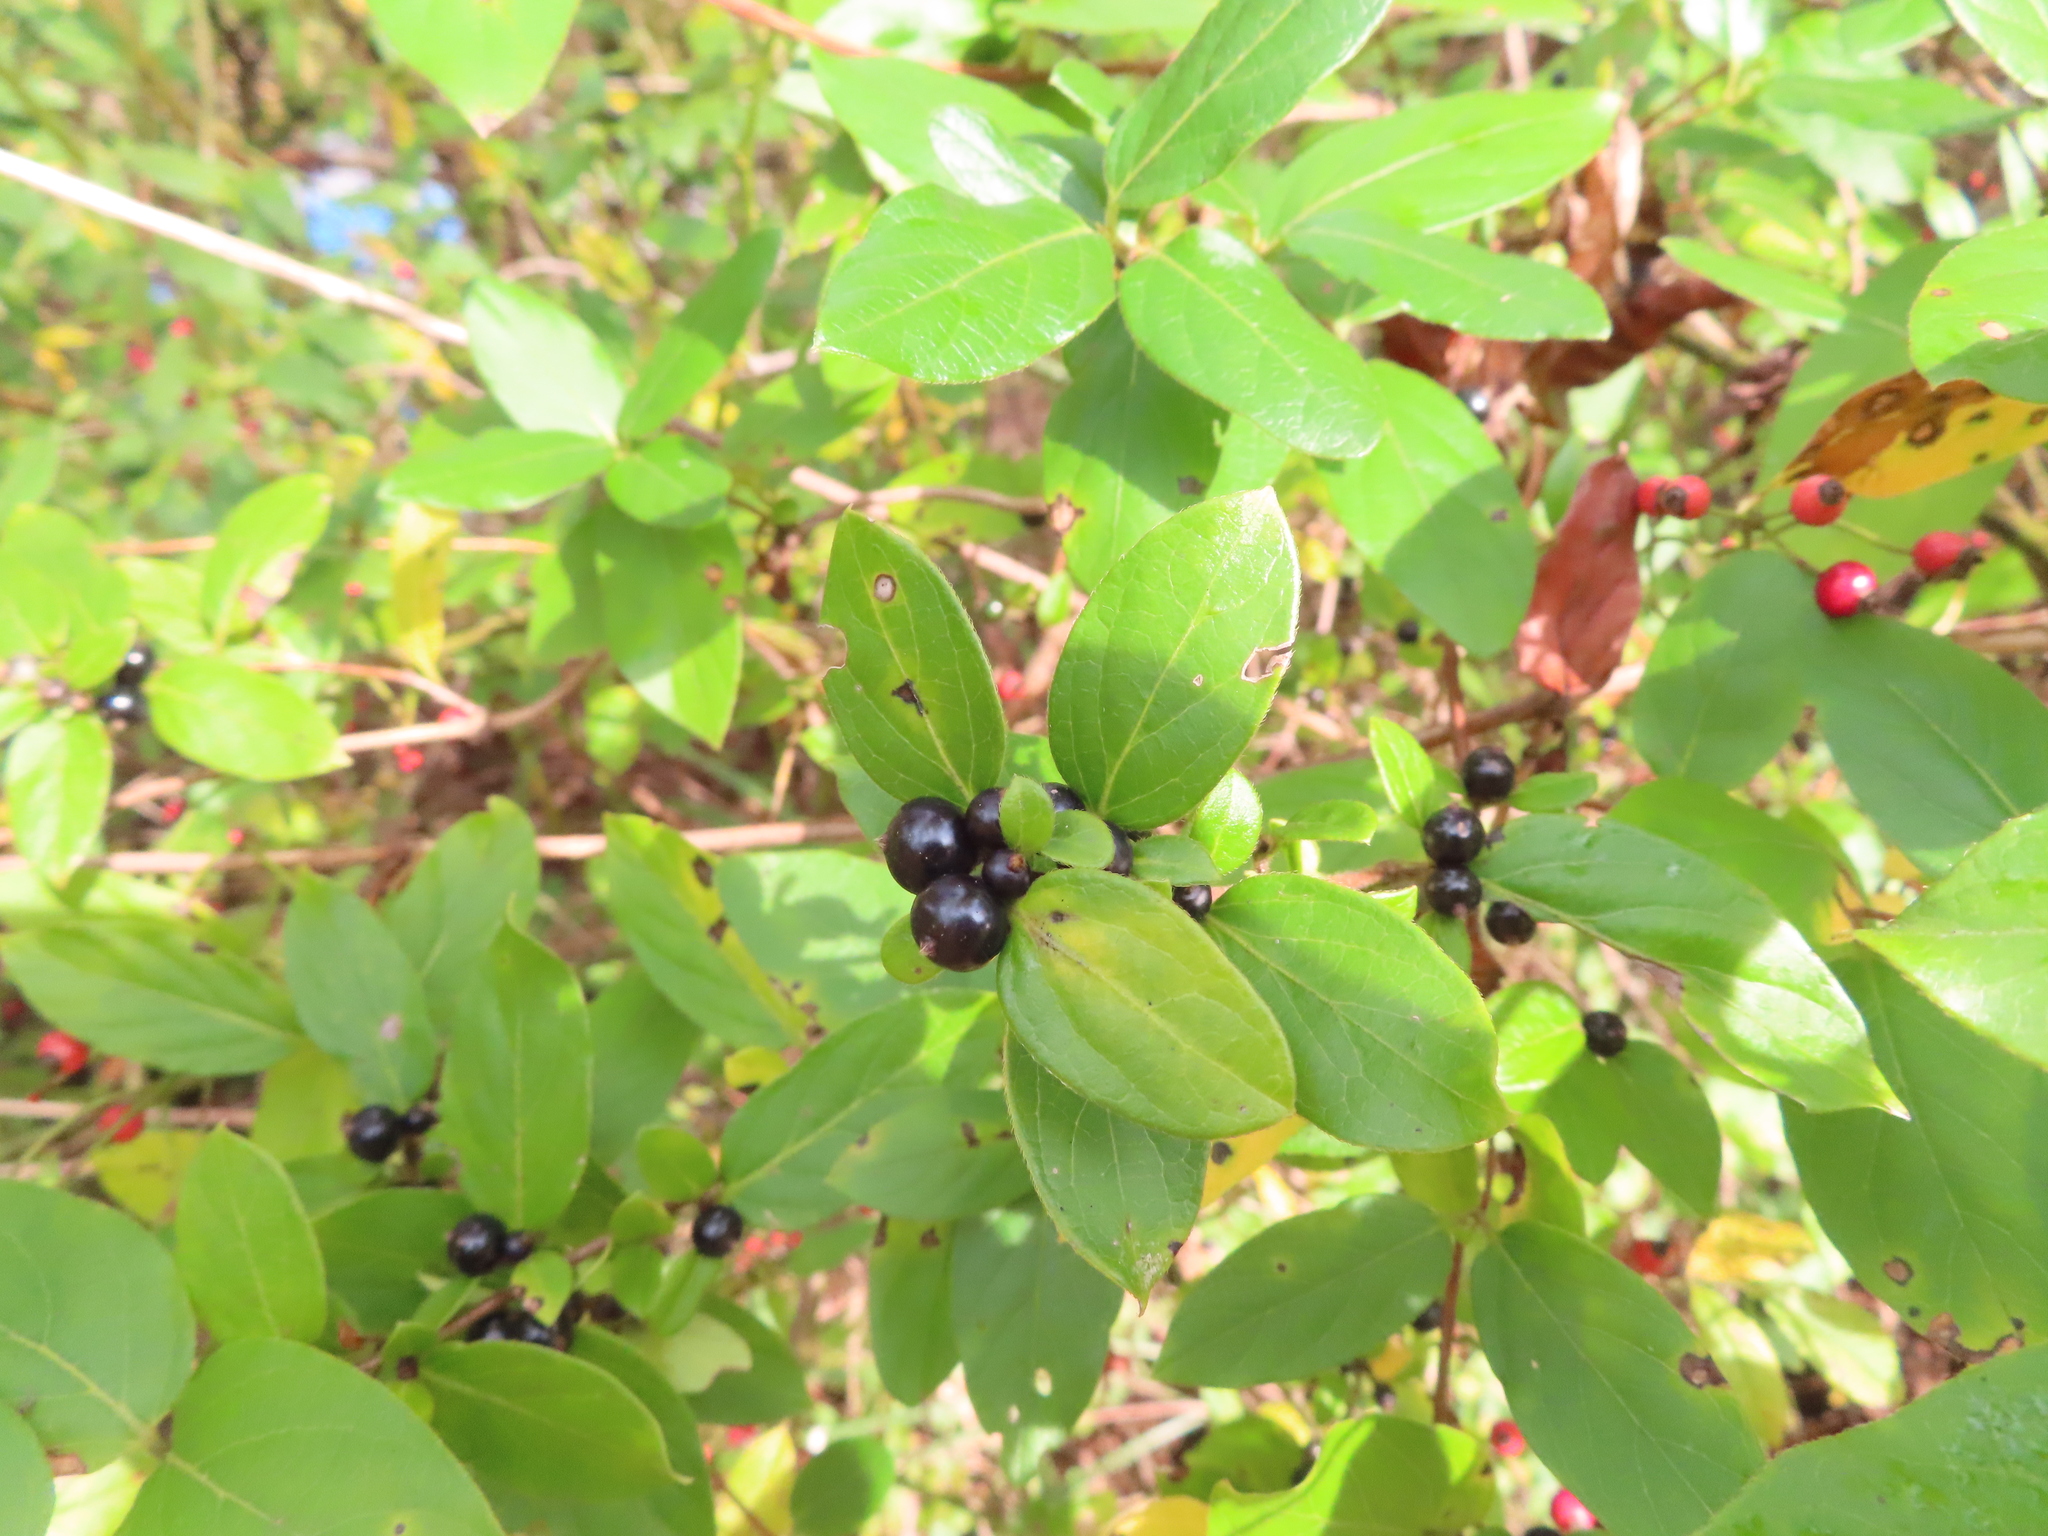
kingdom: Plantae
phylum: Tracheophyta
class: Magnoliopsida
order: Dipsacales
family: Caprifoliaceae
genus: Lonicera
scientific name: Lonicera japonica
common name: Japanese honeysuckle
